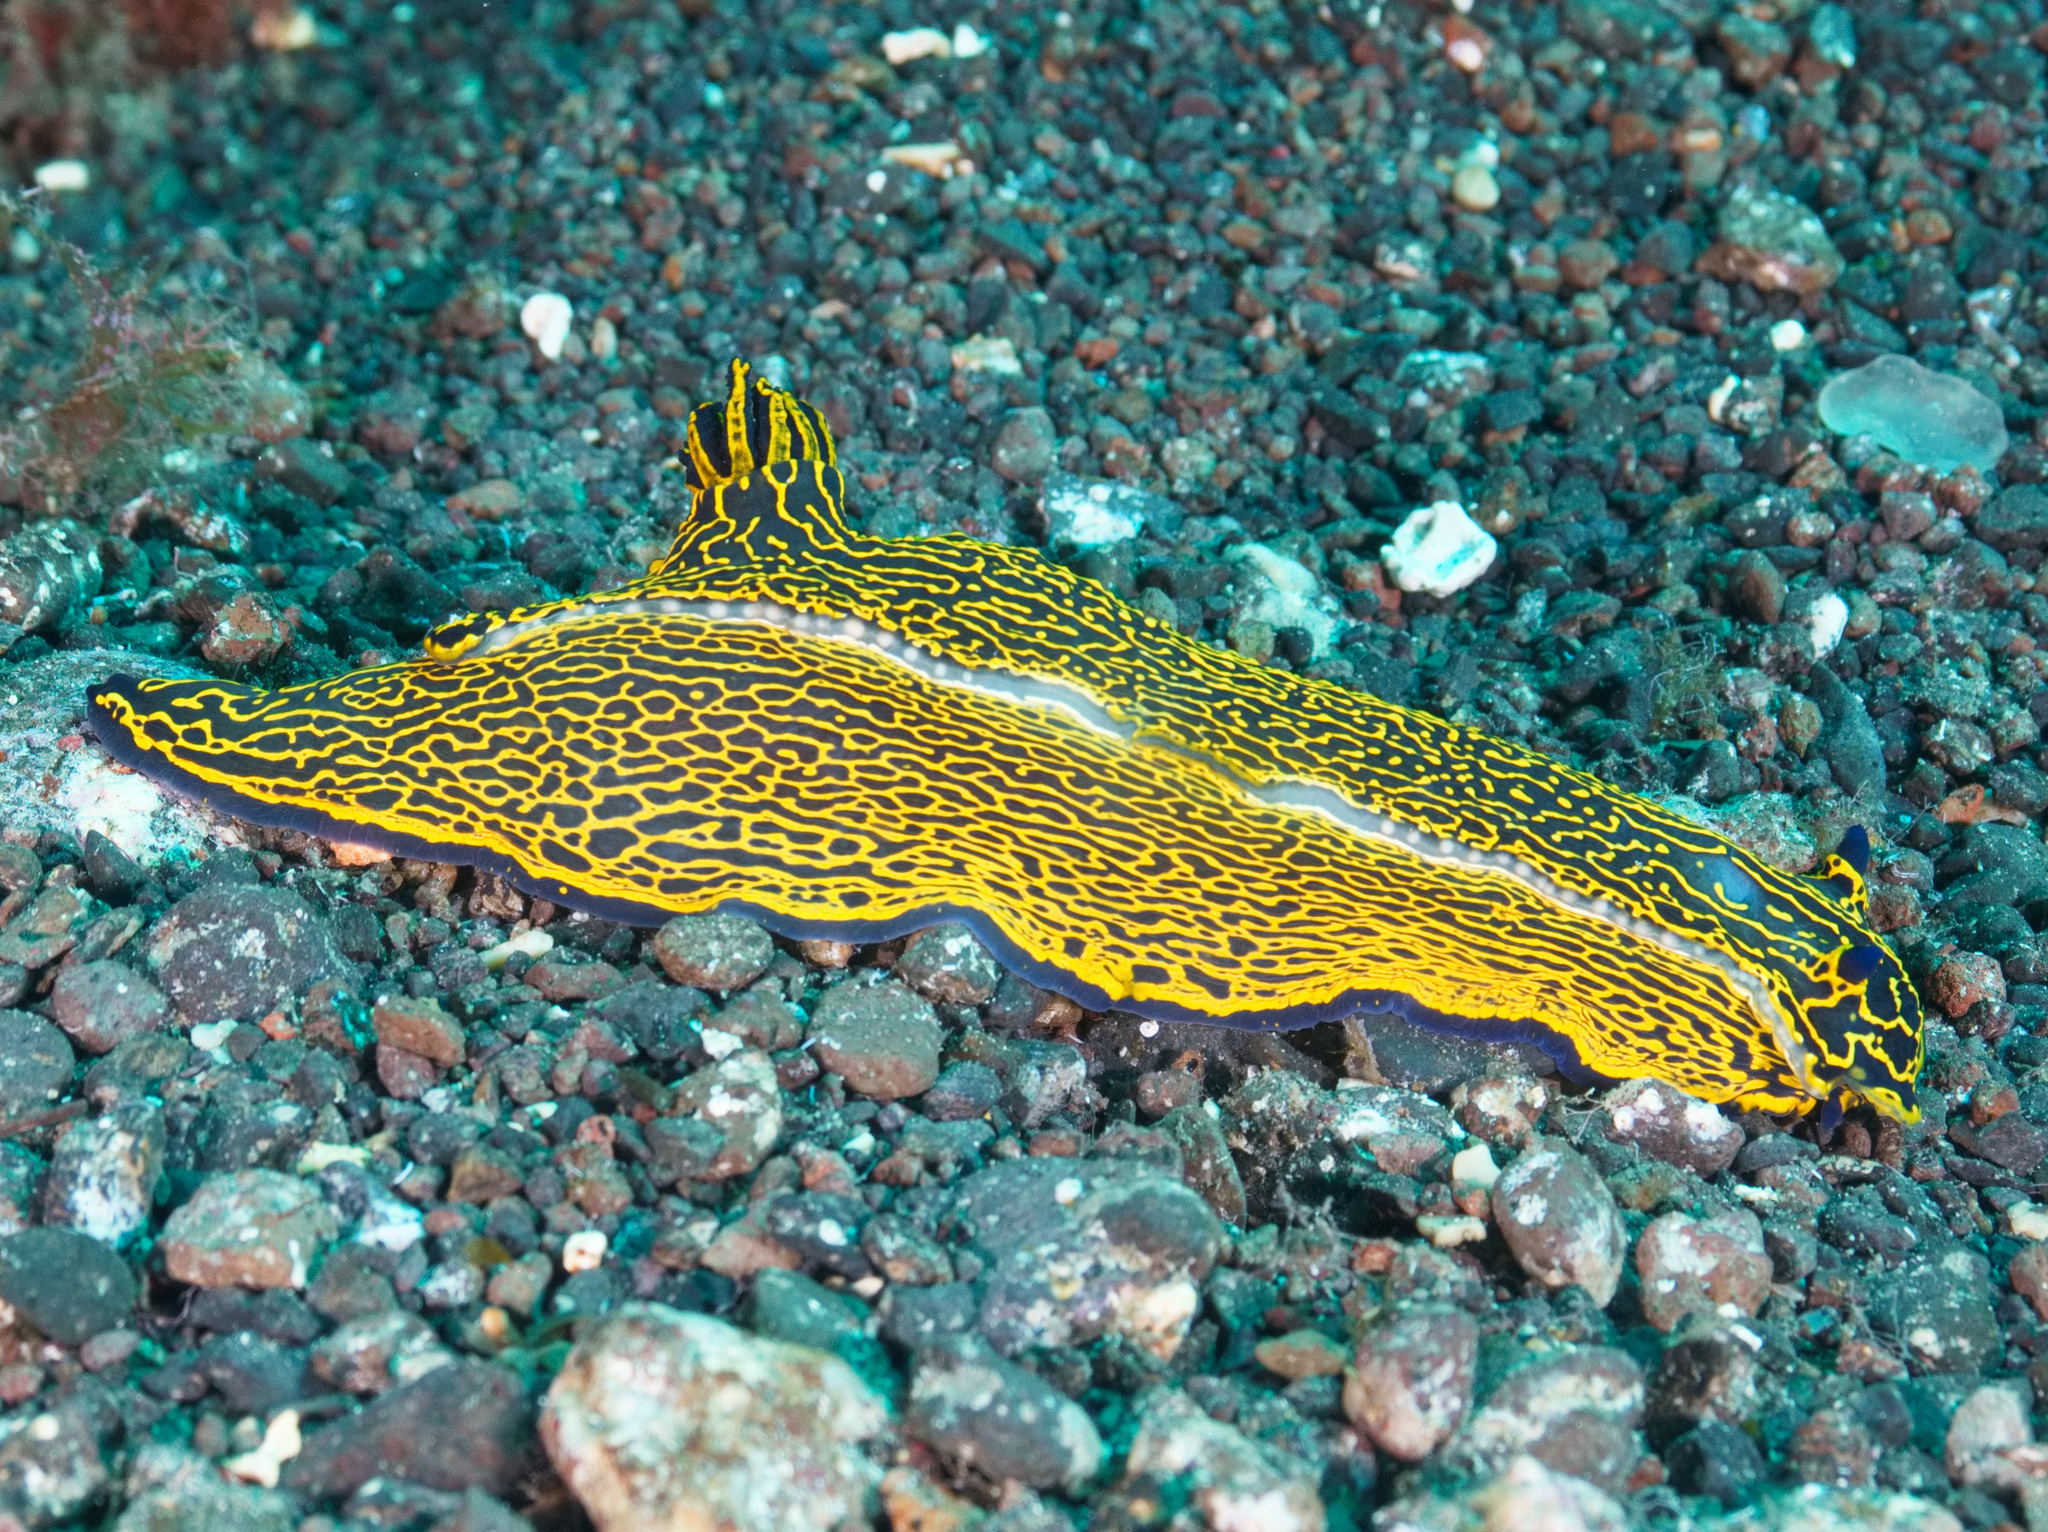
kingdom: Animalia
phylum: Mollusca
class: Gastropoda
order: Nudibranchia
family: Chromodorididae
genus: Felimare
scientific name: Felimare picta
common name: Giant doris
